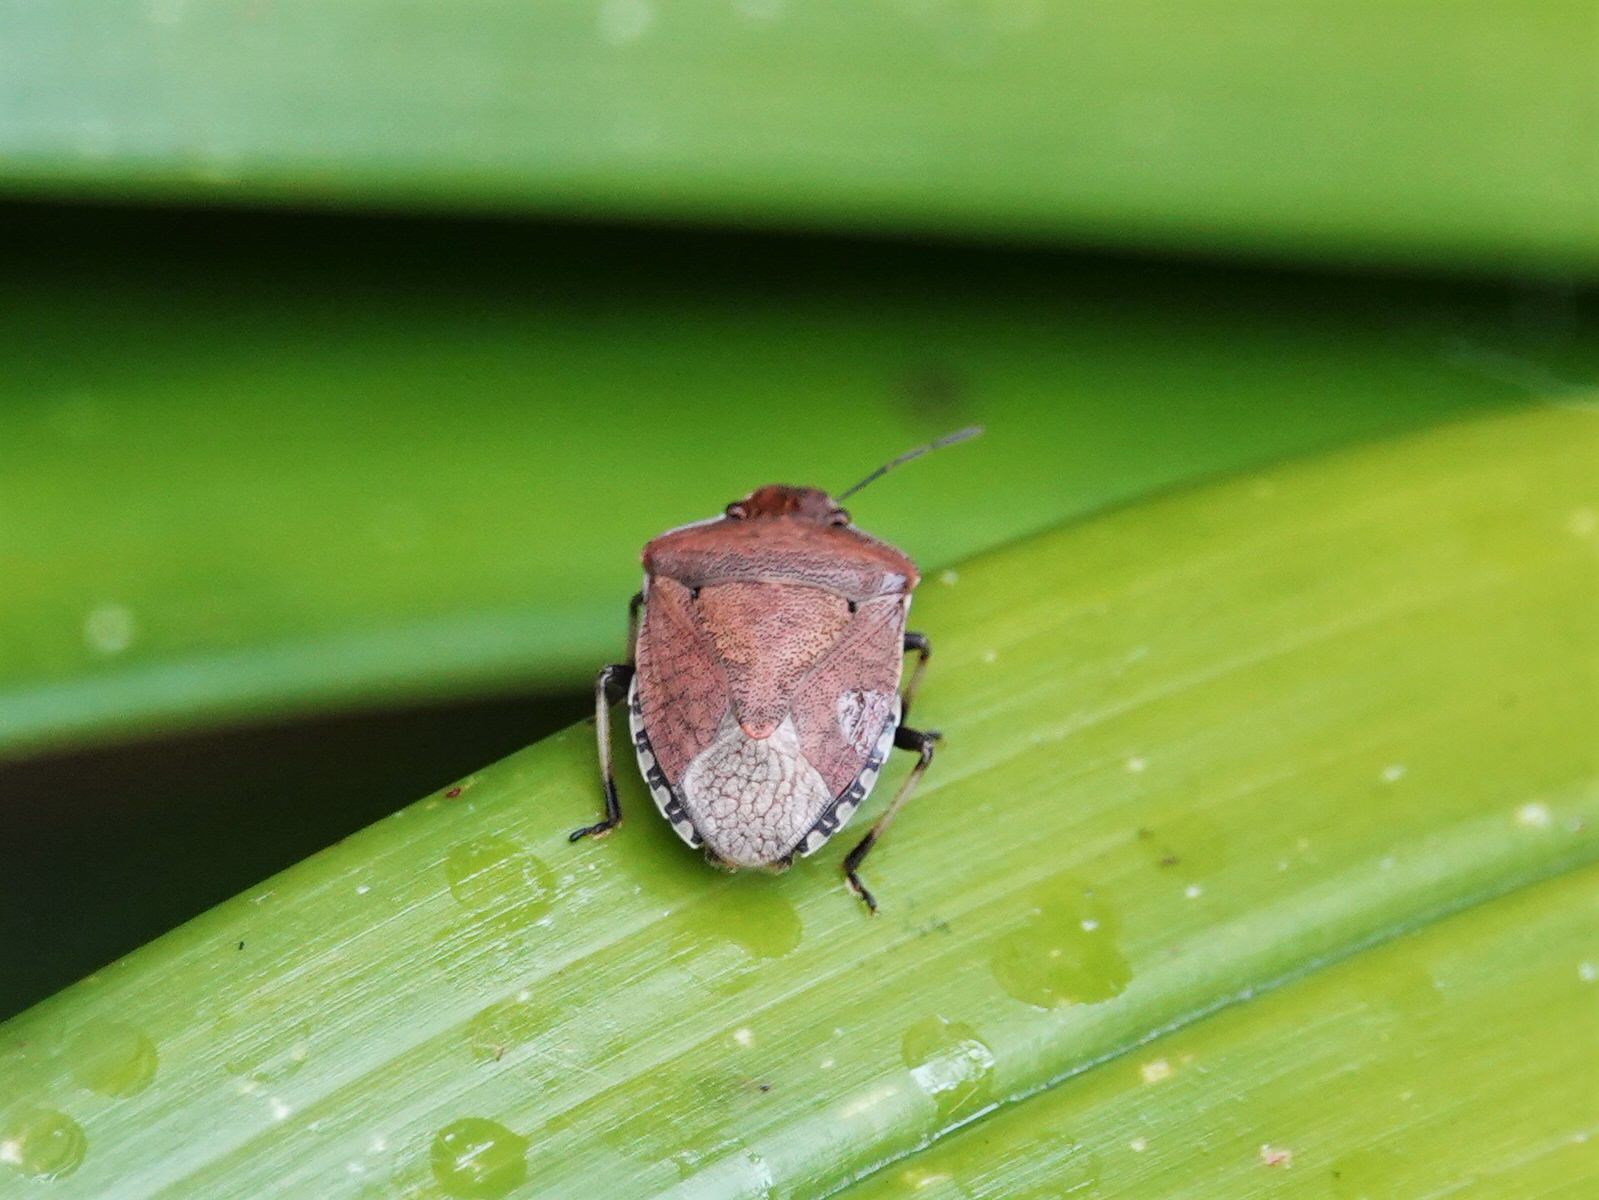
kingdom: Animalia
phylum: Arthropoda
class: Insecta
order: Hemiptera
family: Pentatomidae
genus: Dictyotus
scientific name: Dictyotus caenosus
